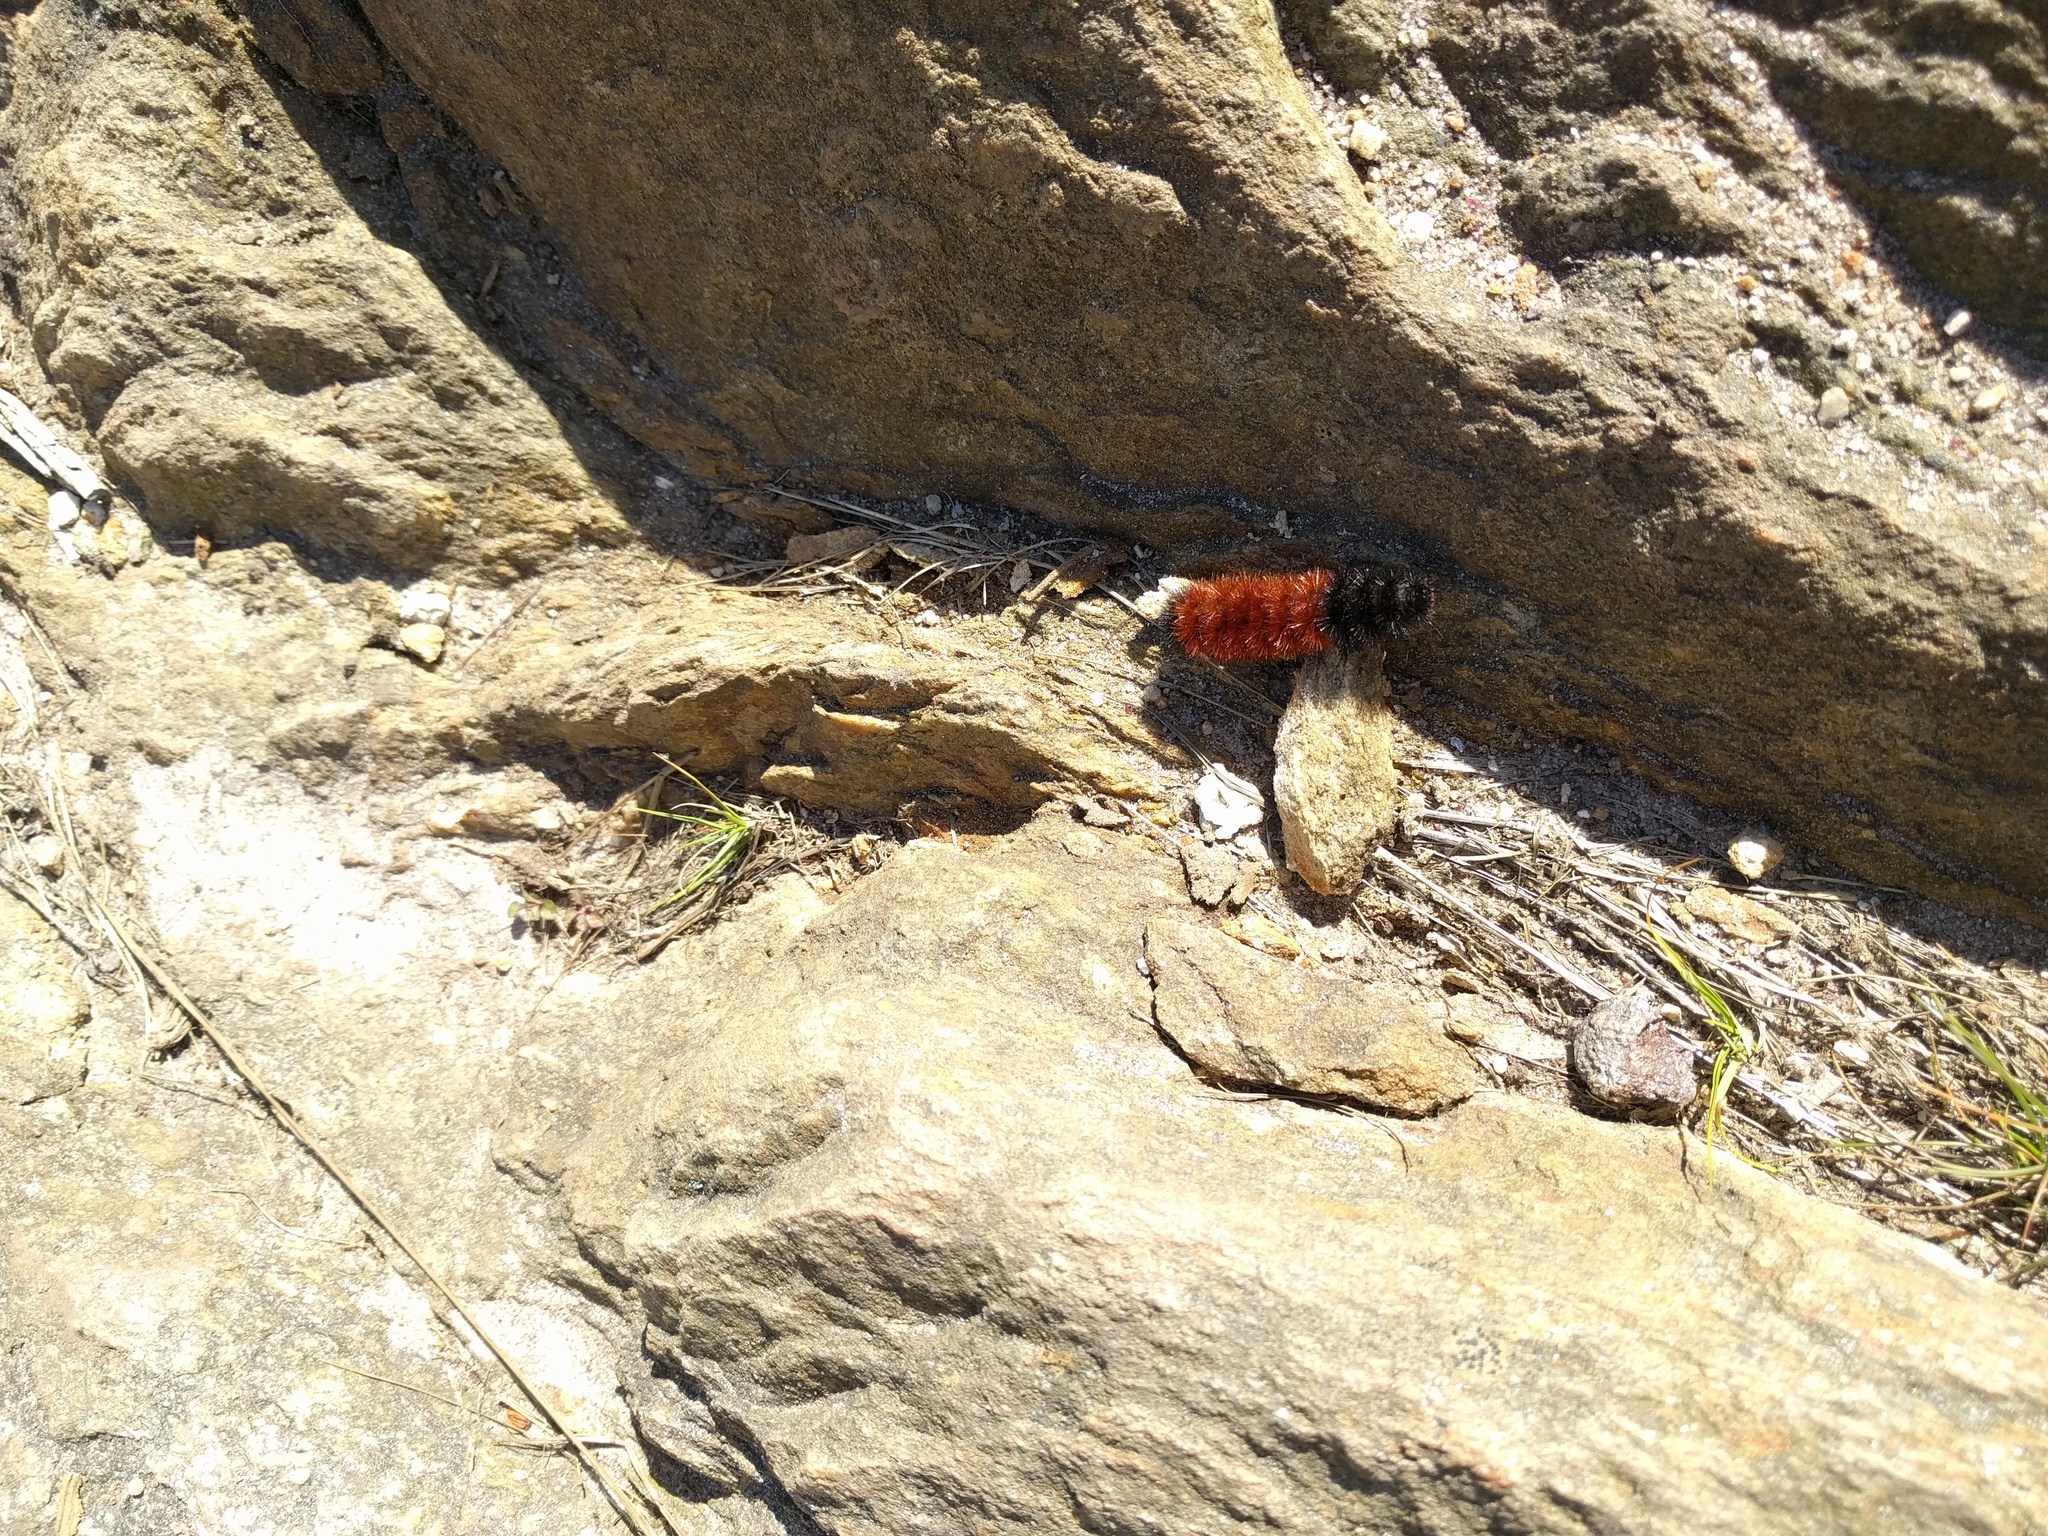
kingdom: Animalia
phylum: Arthropoda
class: Insecta
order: Lepidoptera
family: Erebidae
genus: Pyrrharctia
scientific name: Pyrrharctia isabella
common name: Isabella tiger moth
